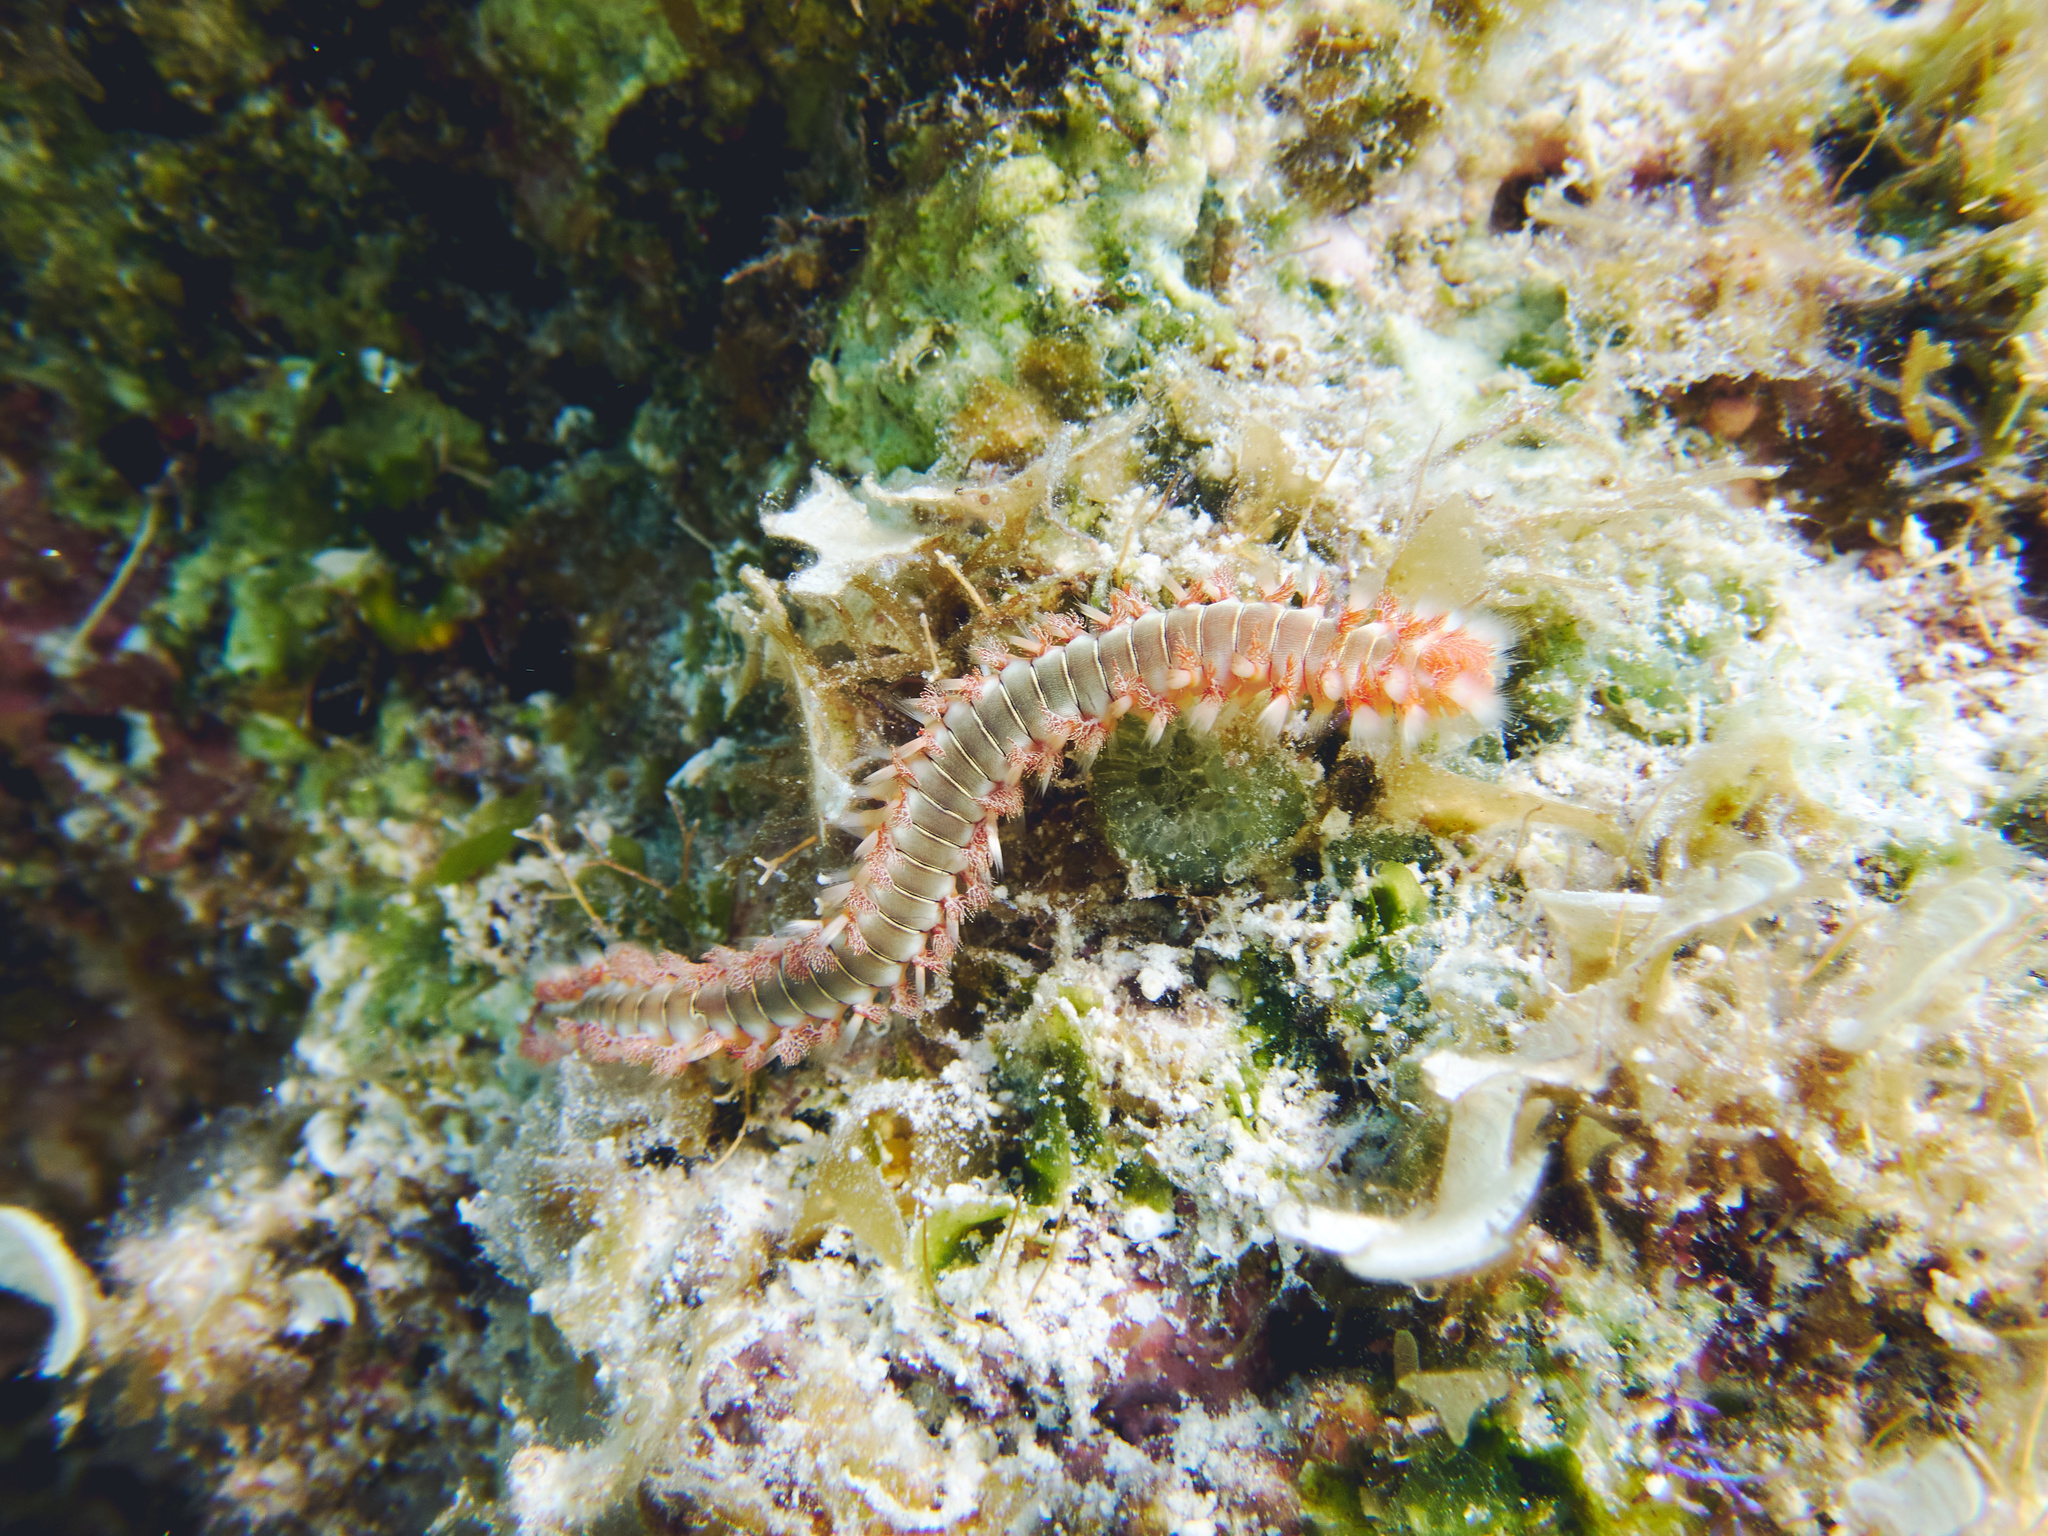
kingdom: Animalia
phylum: Annelida
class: Polychaeta
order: Amphinomida
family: Amphinomidae
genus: Hermodice
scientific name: Hermodice carunculata
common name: Bearded fireworm
